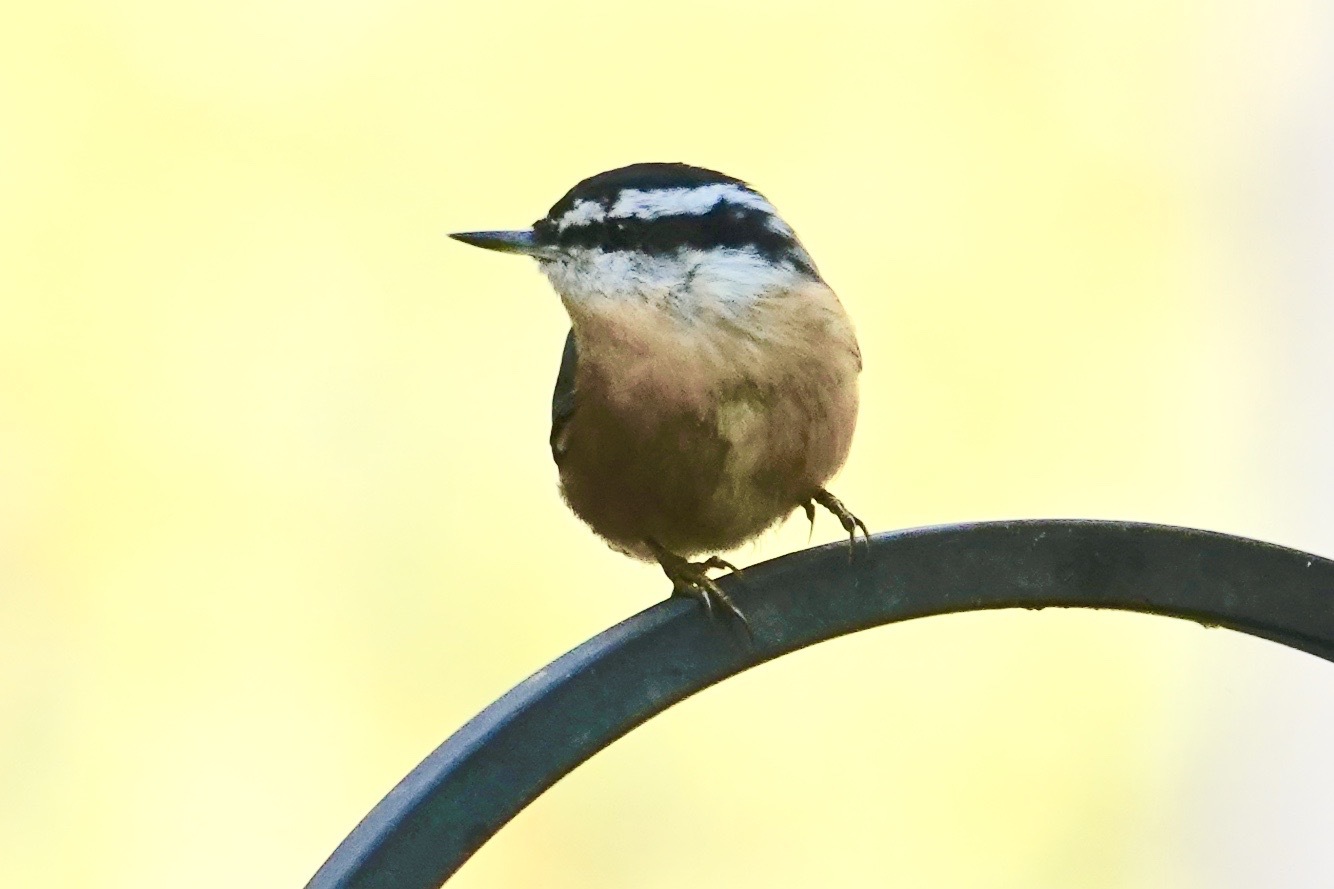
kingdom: Animalia
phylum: Chordata
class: Aves
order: Passeriformes
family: Sittidae
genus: Sitta
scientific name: Sitta canadensis
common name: Red-breasted nuthatch
